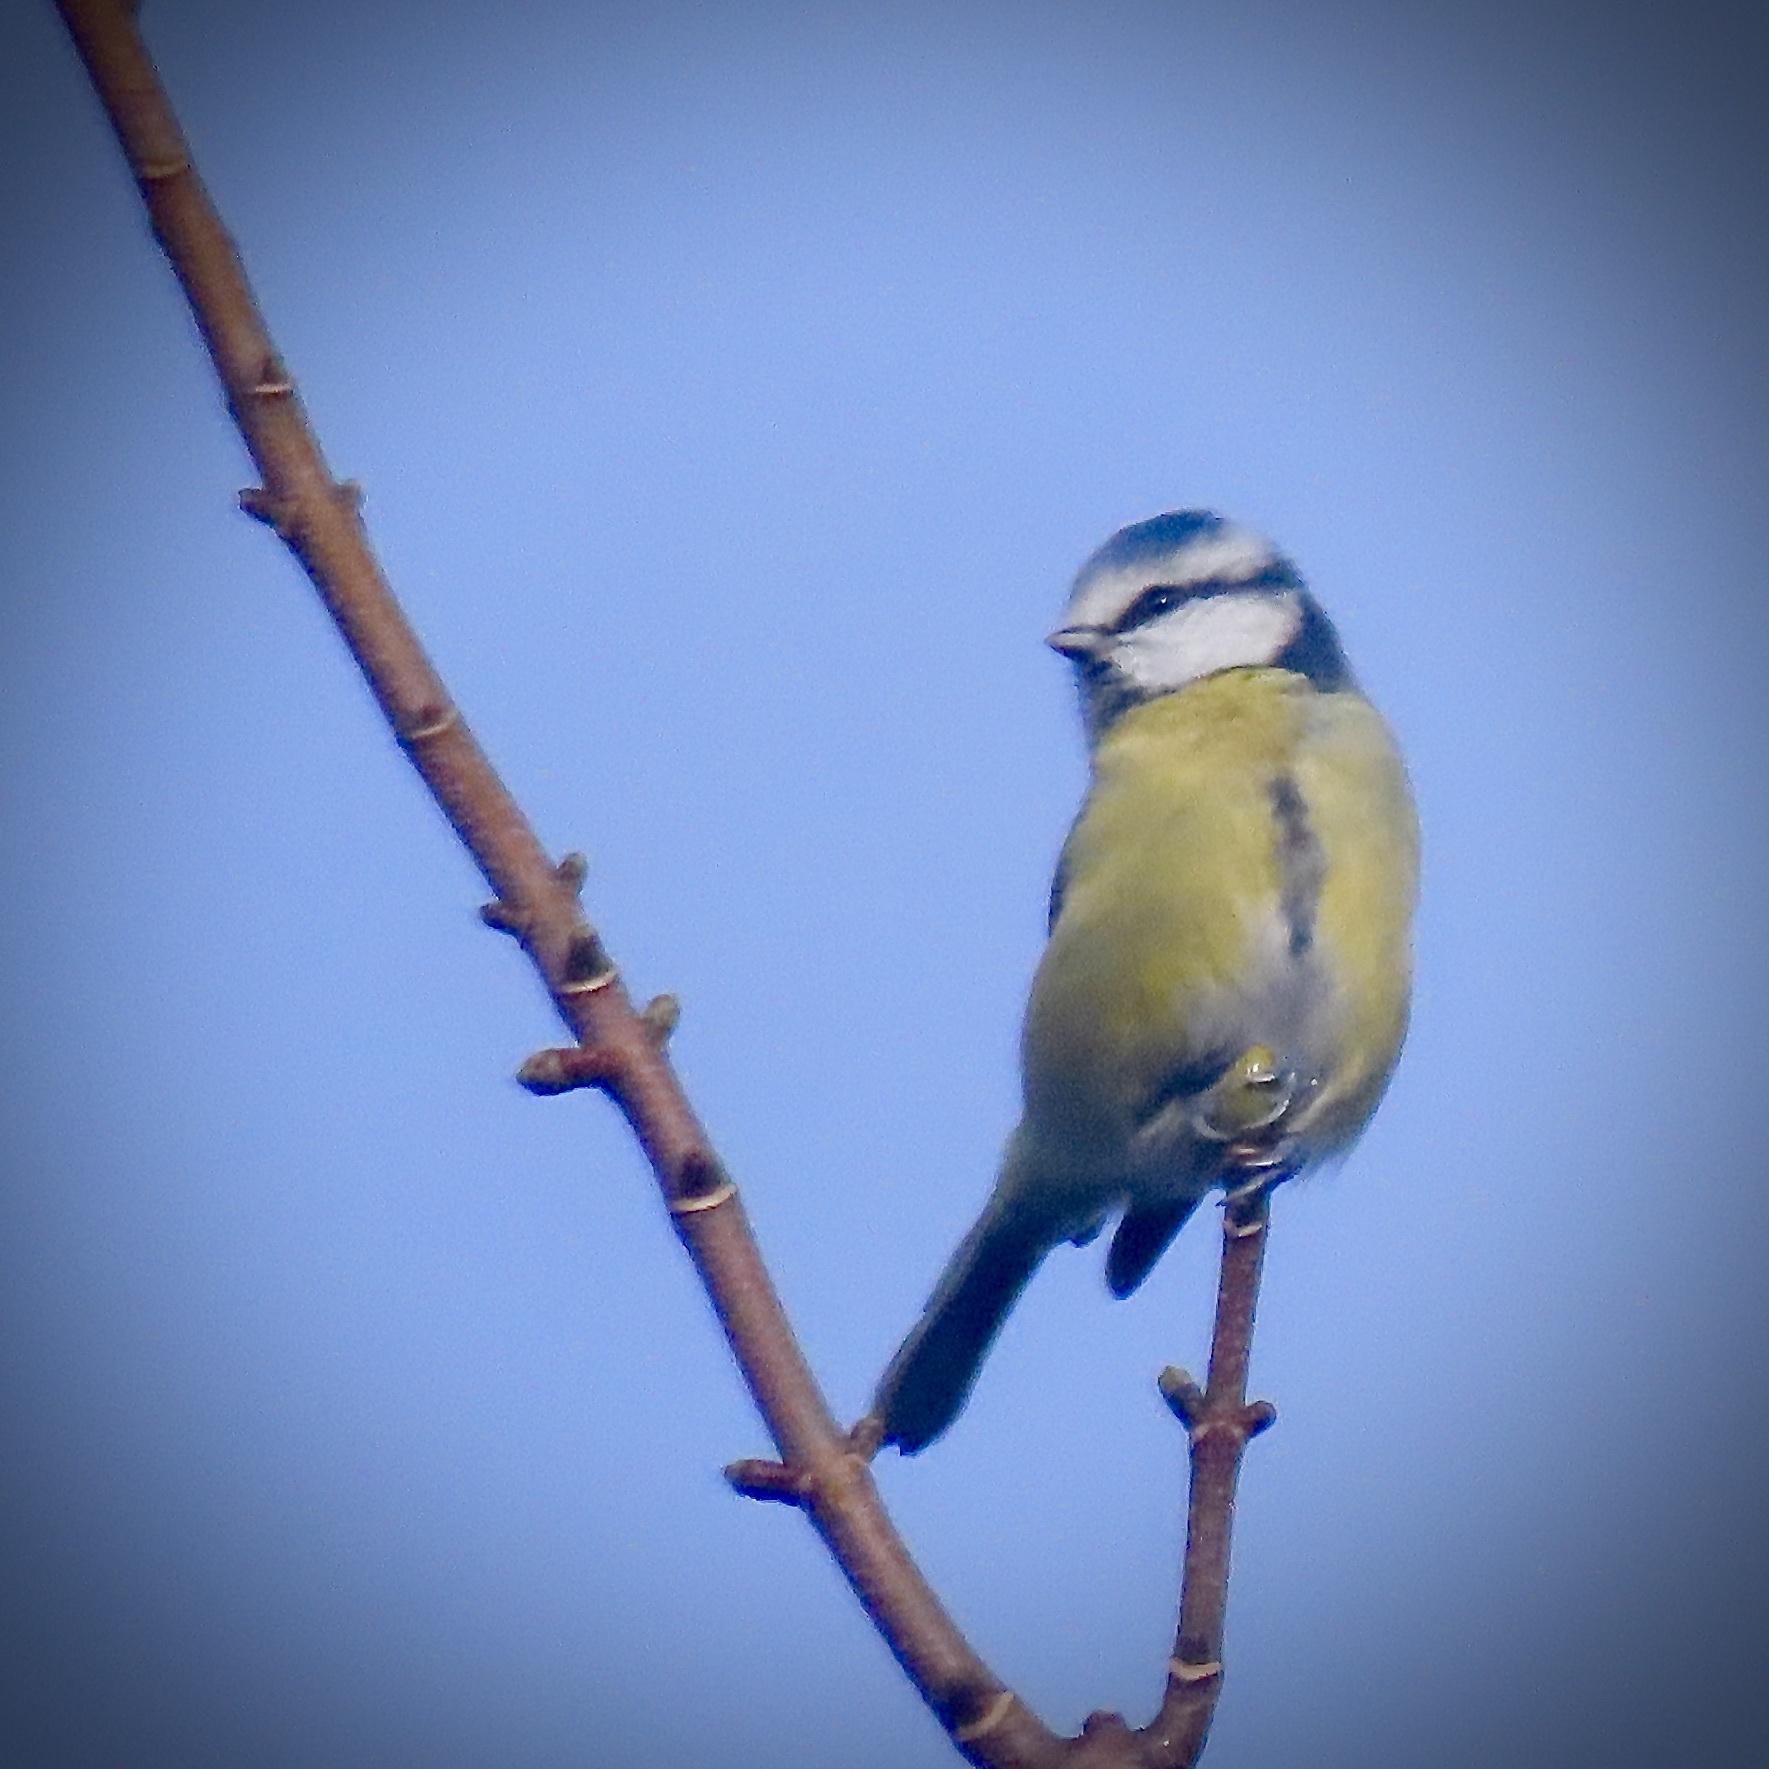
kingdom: Animalia
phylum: Chordata
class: Aves
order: Passeriformes
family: Paridae
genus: Cyanistes
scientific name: Cyanistes caeruleus
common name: Eurasian blue tit
